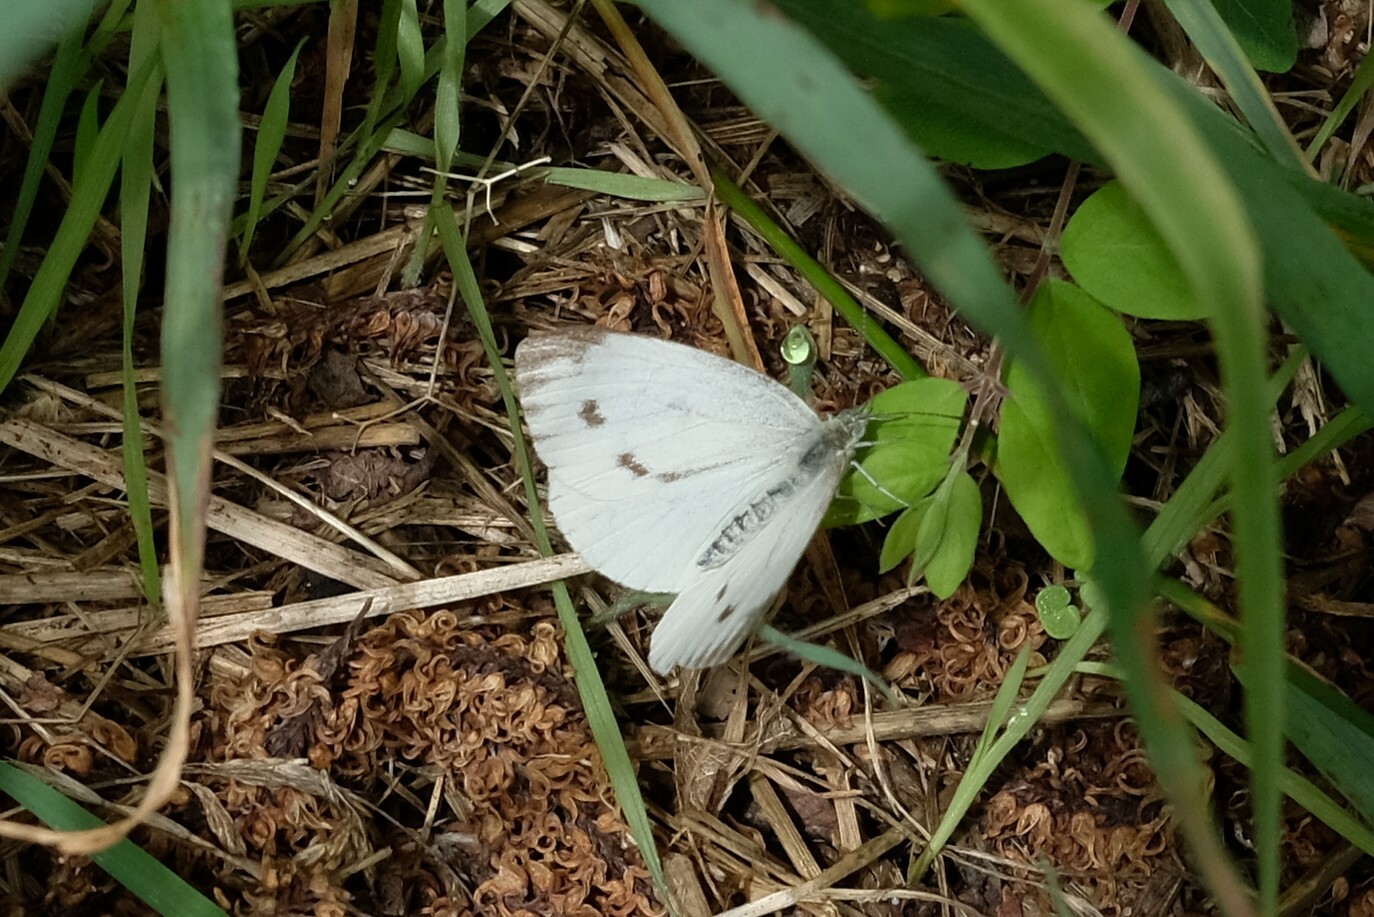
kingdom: Animalia
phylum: Arthropoda
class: Insecta
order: Lepidoptera
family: Pieridae
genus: Pieris
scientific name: Pieris napi
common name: Green-veined white
